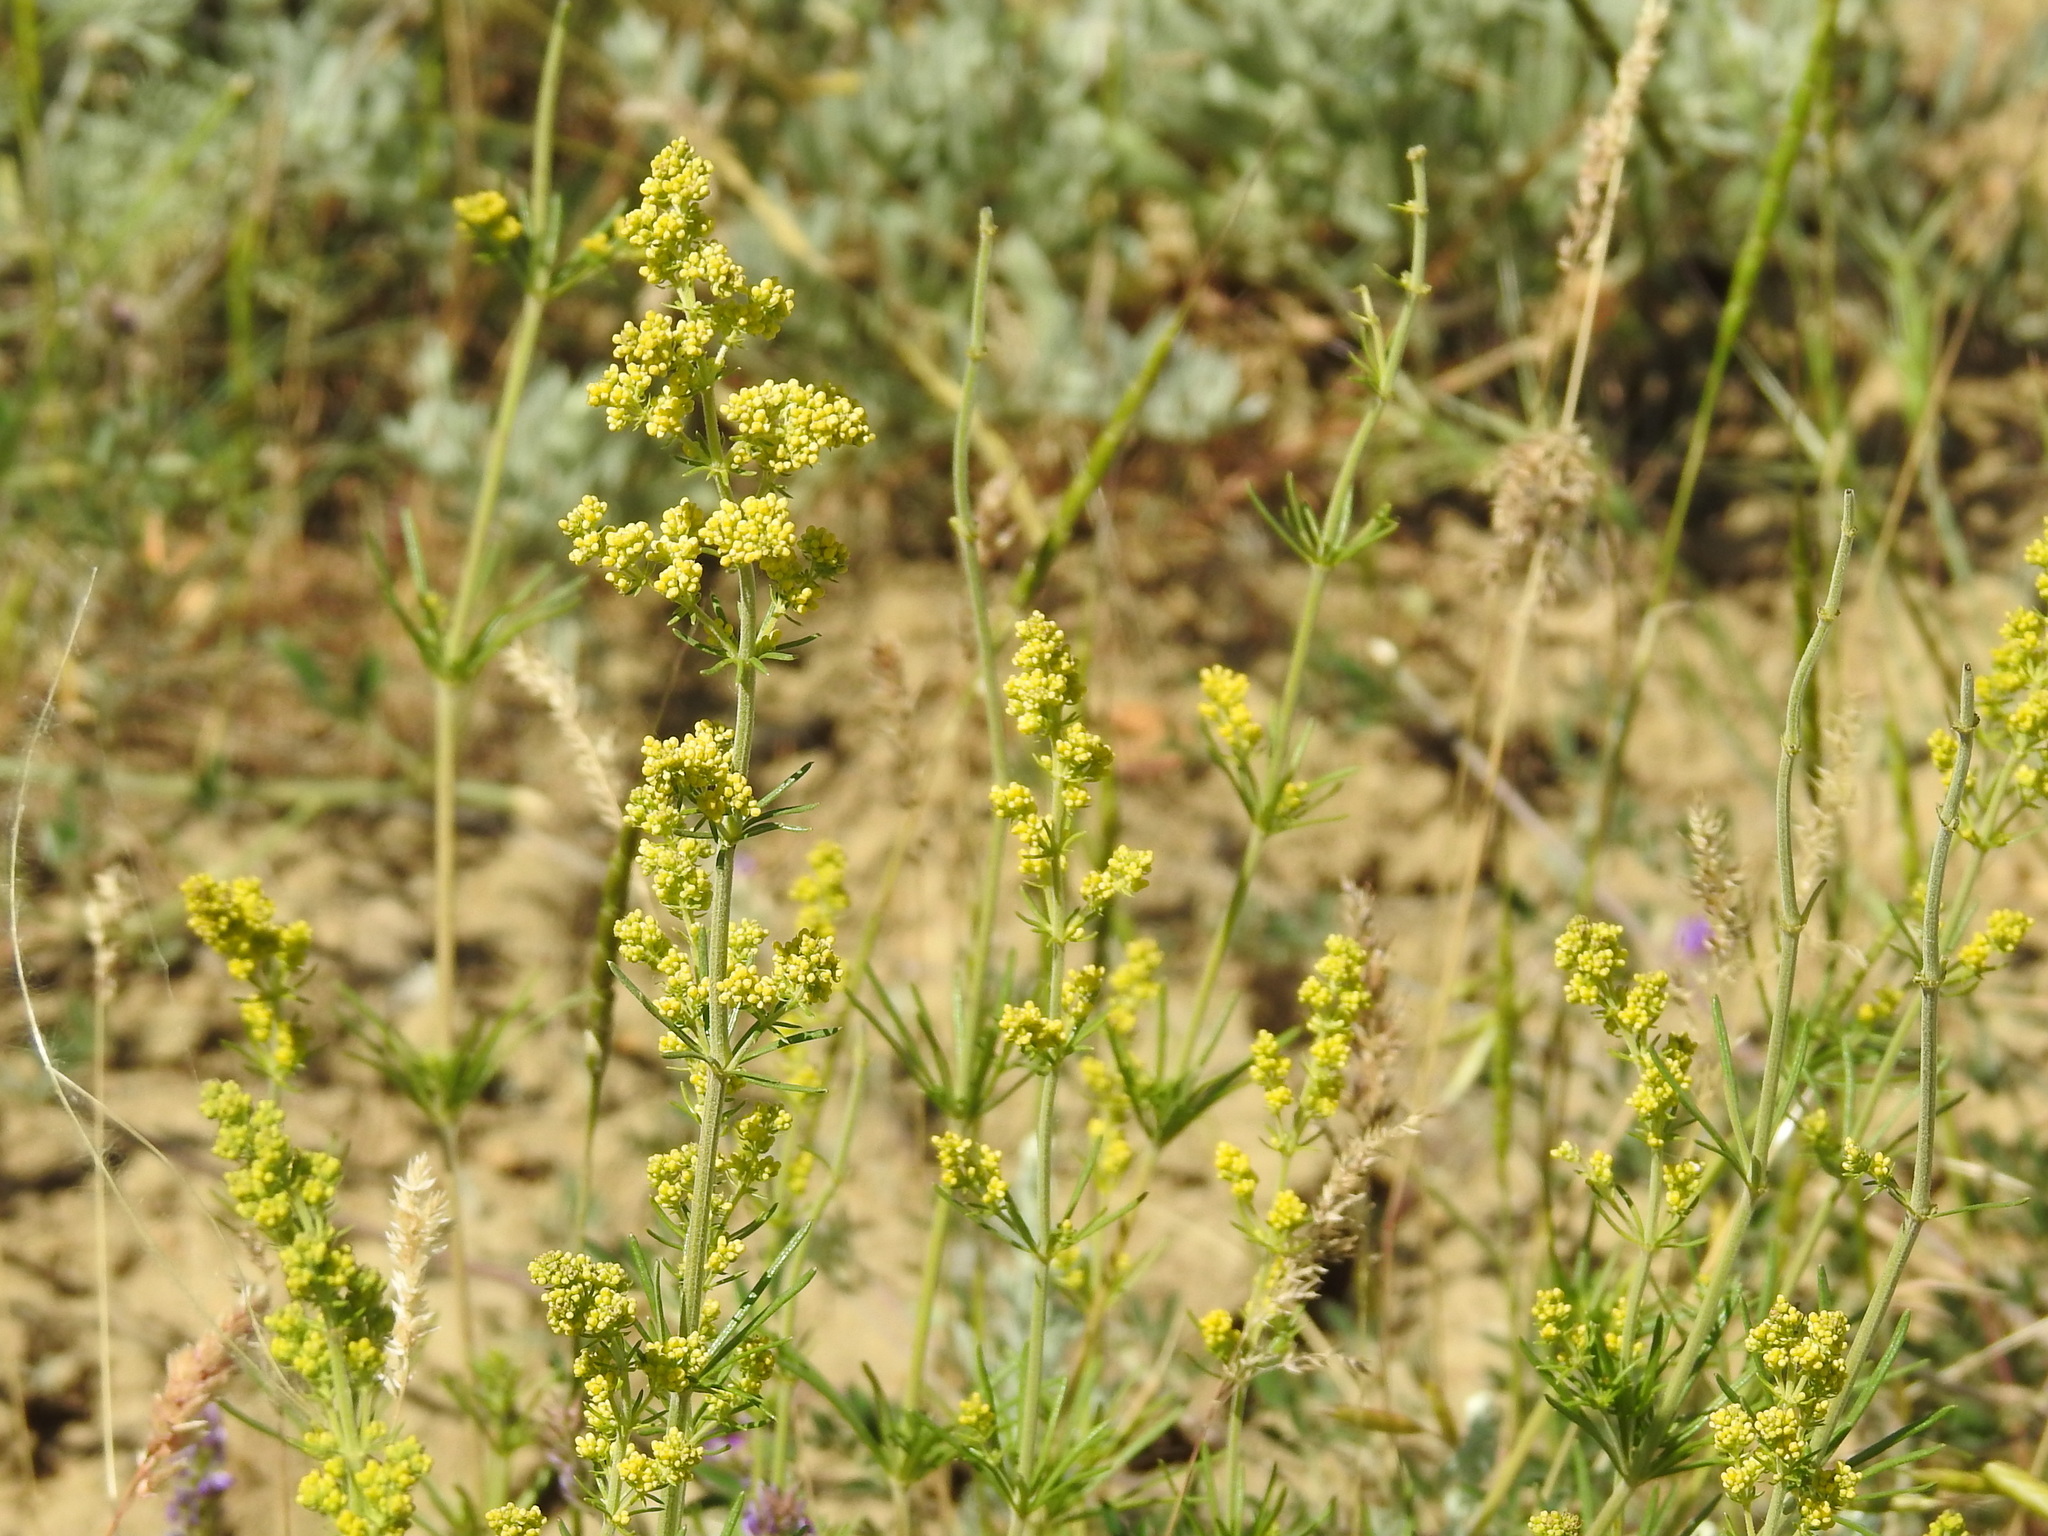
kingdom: Plantae
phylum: Tracheophyta
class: Magnoliopsida
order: Gentianales
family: Rubiaceae
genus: Galium
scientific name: Galium verum
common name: Lady's bedstraw
